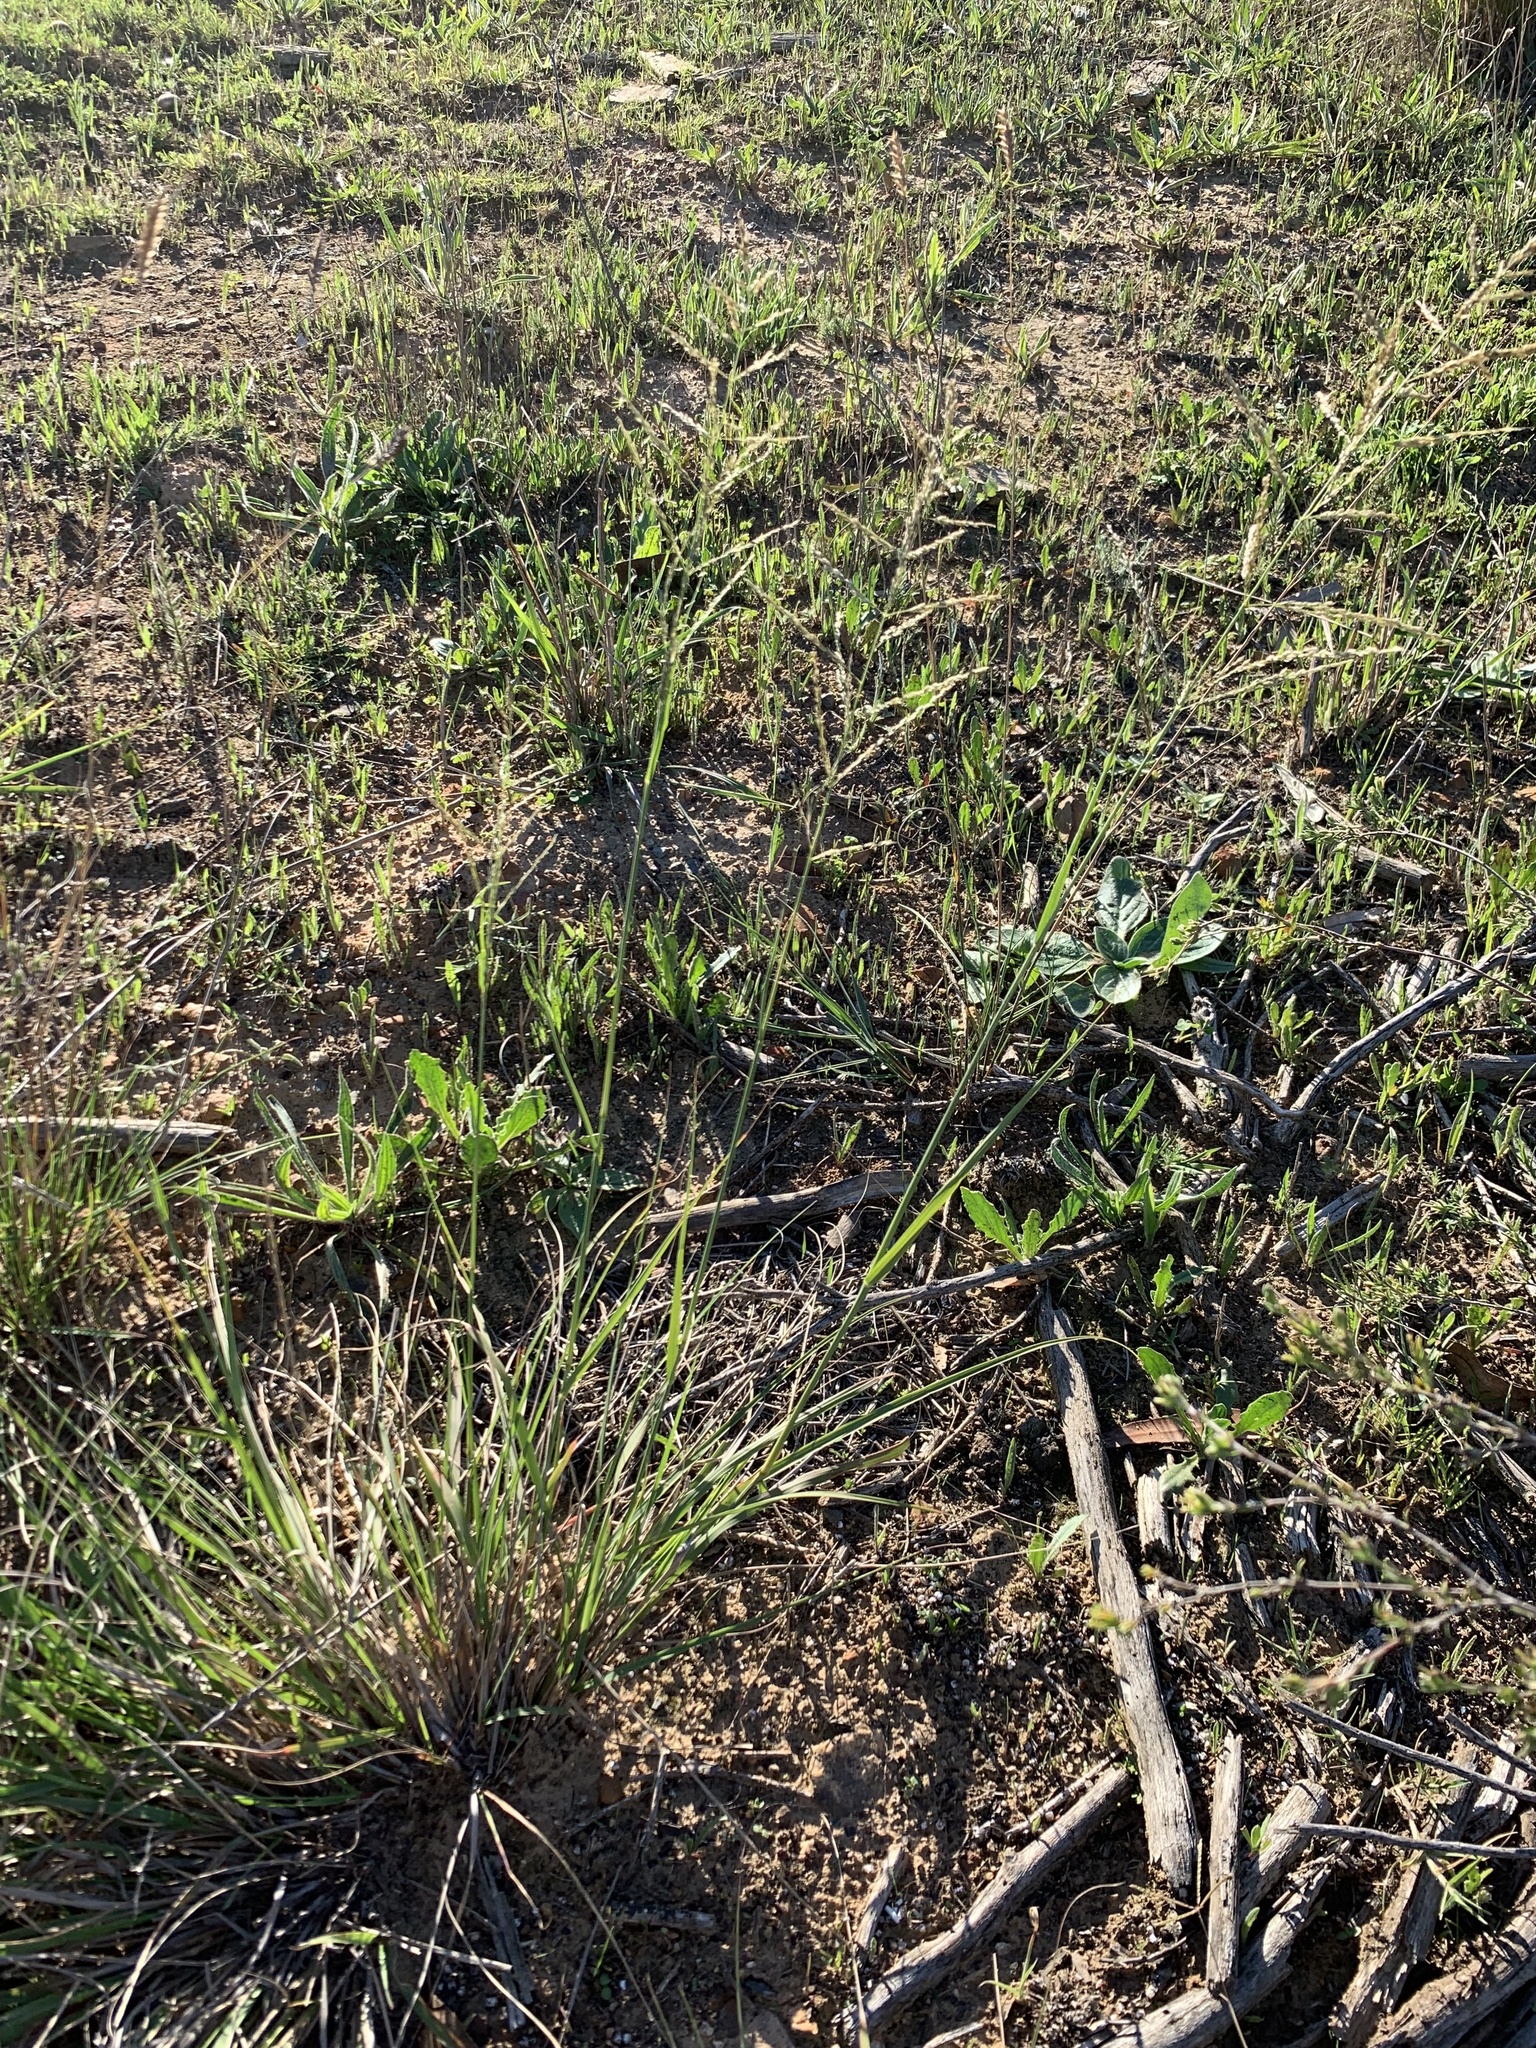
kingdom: Plantae
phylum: Tracheophyta
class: Liliopsida
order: Poales
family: Poaceae
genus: Eragrostis
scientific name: Eragrostis curvula
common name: African love-grass
